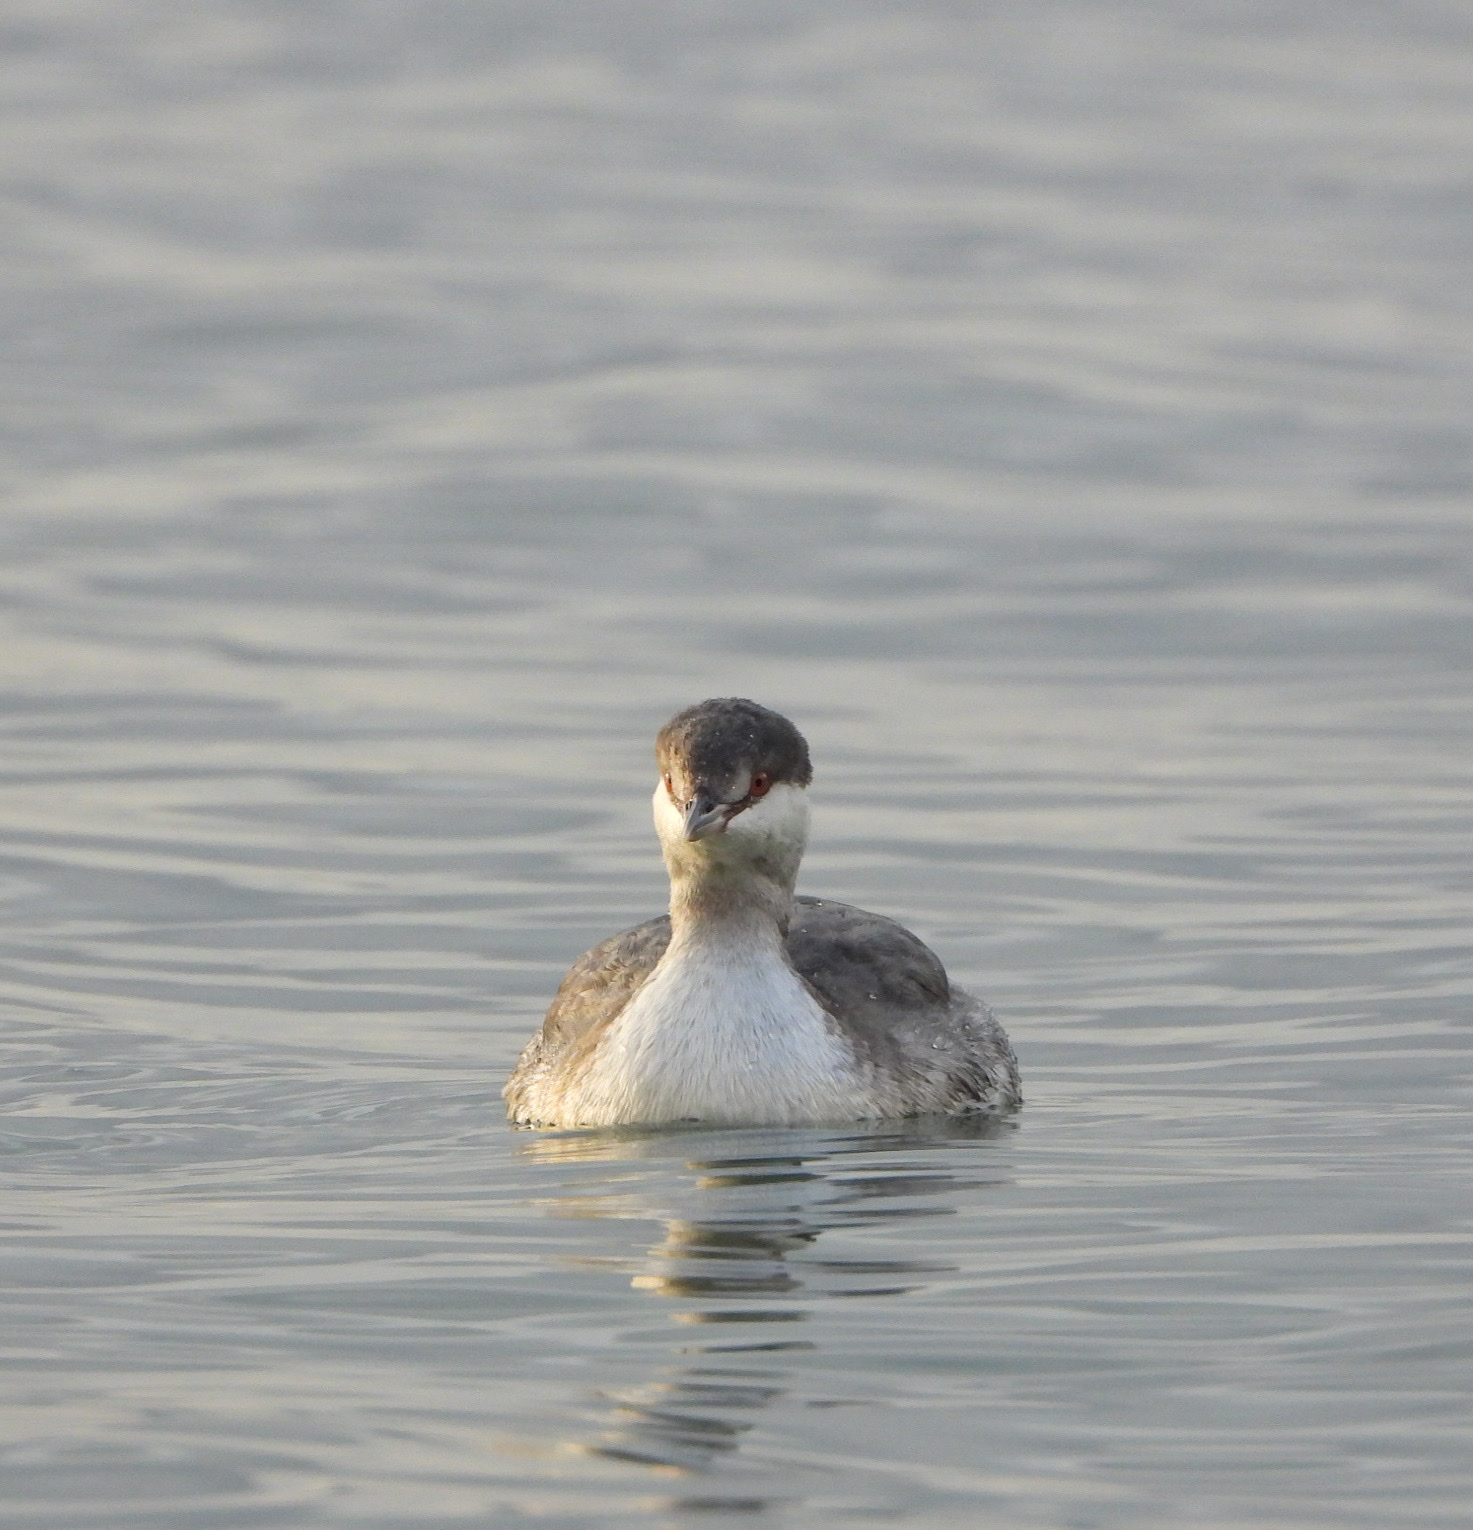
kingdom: Animalia
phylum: Chordata
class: Aves
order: Podicipediformes
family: Podicipedidae
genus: Podiceps
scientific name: Podiceps auritus
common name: Horned grebe
